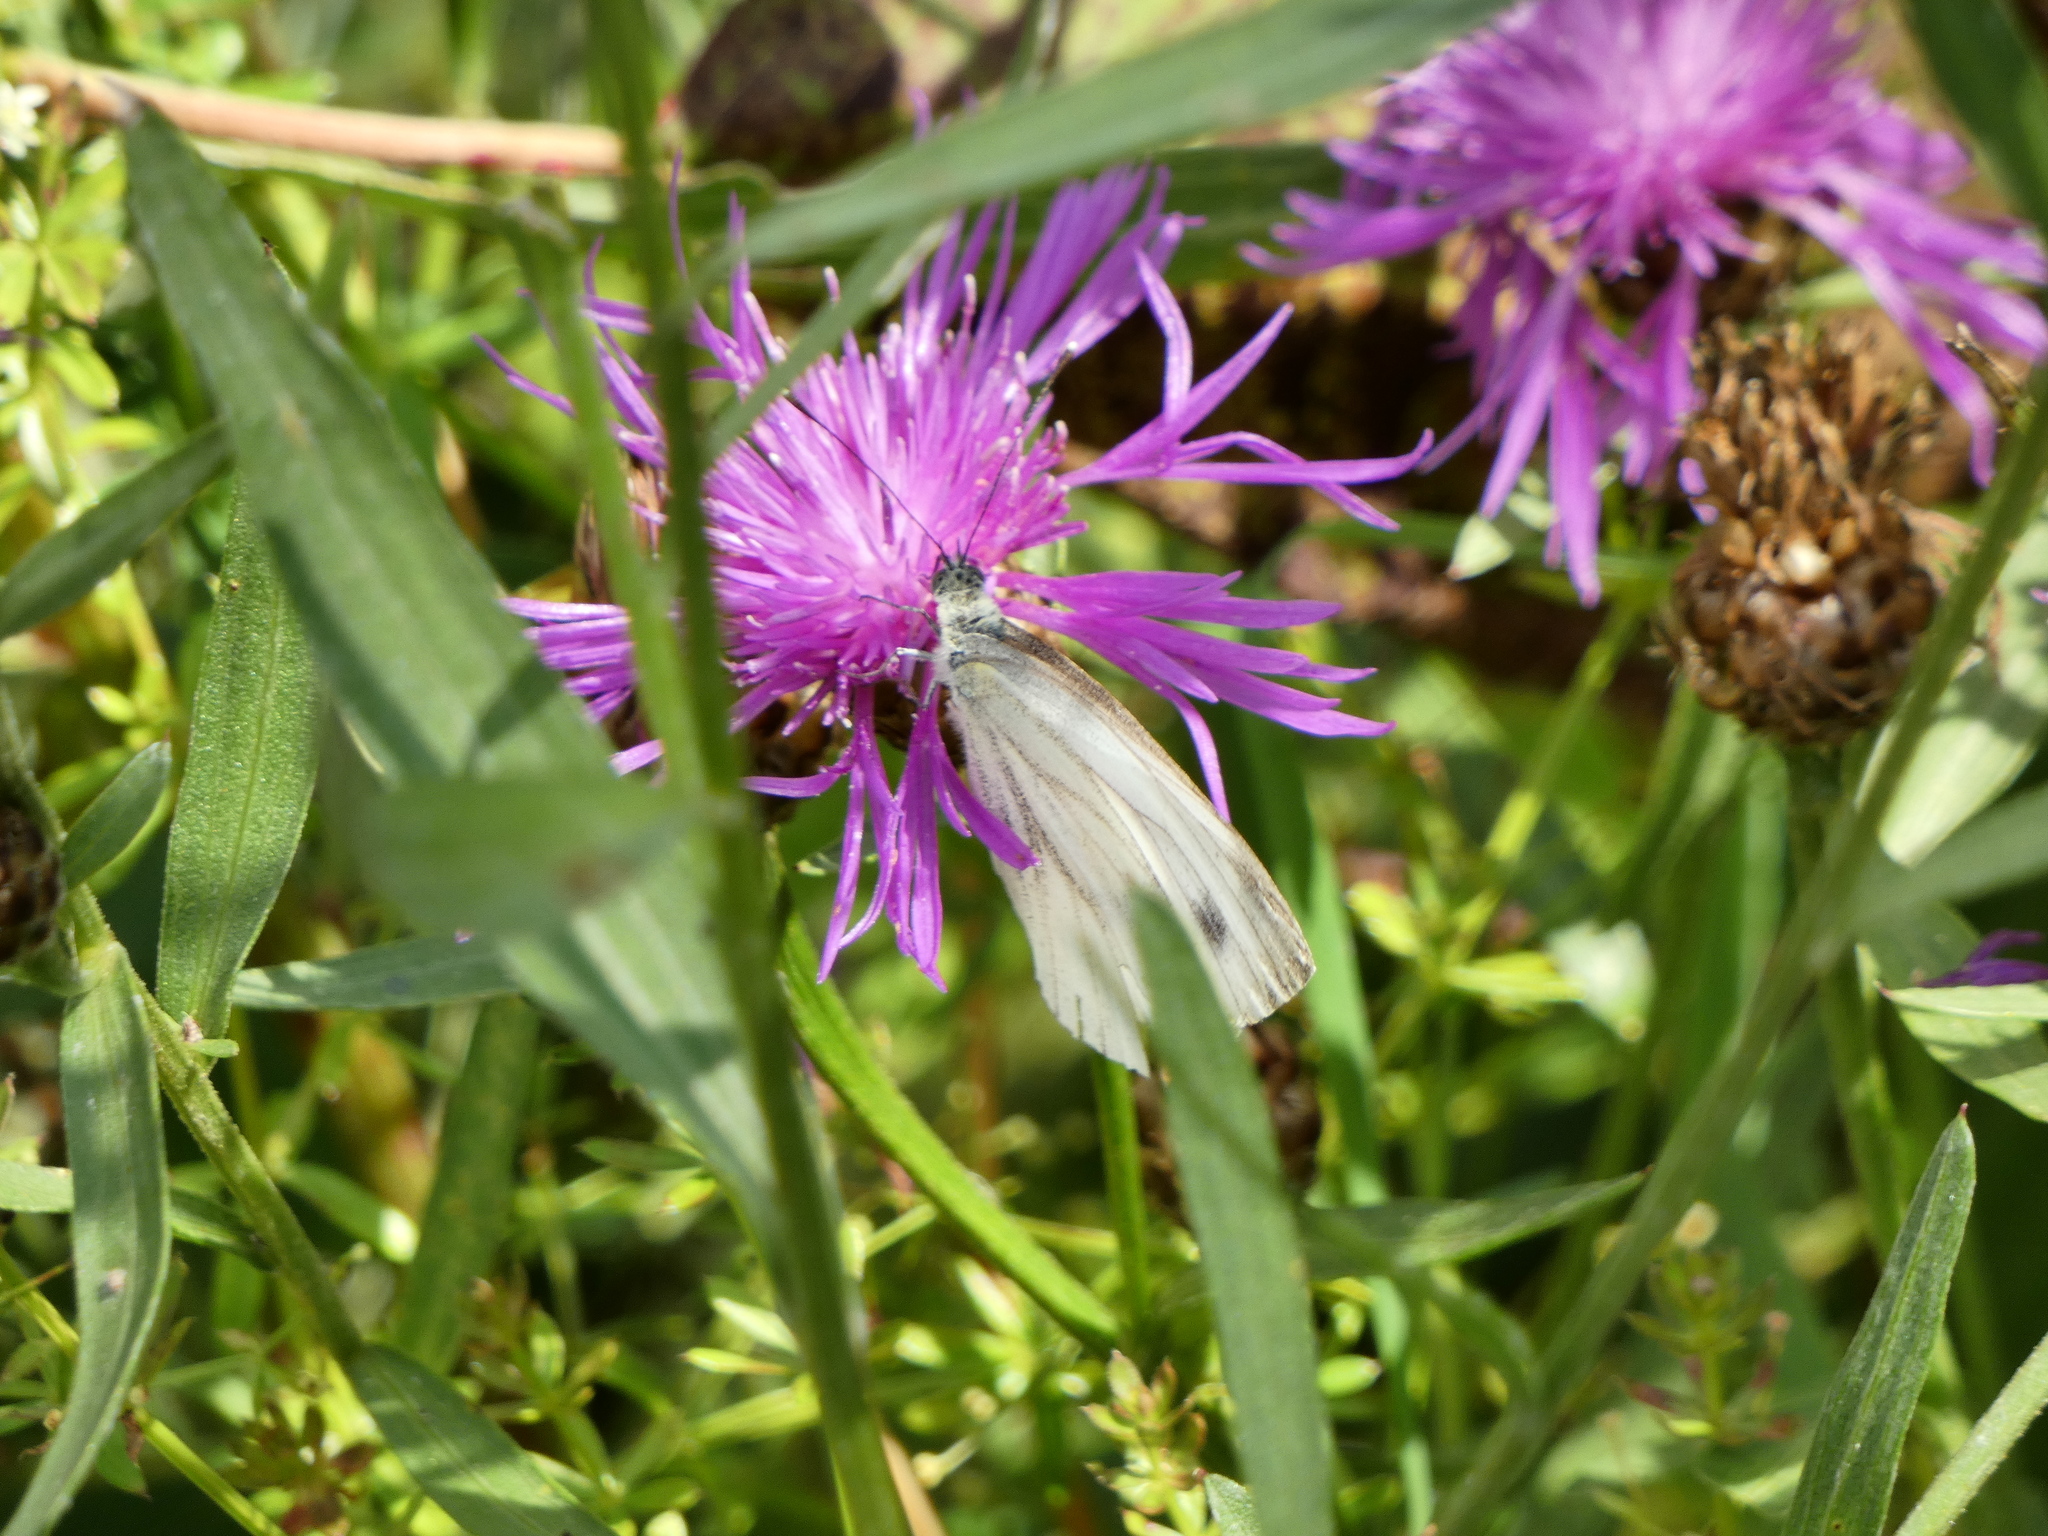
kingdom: Animalia
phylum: Arthropoda
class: Insecta
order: Lepidoptera
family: Pieridae
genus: Pieris
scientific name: Pieris napi
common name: Green-veined white
